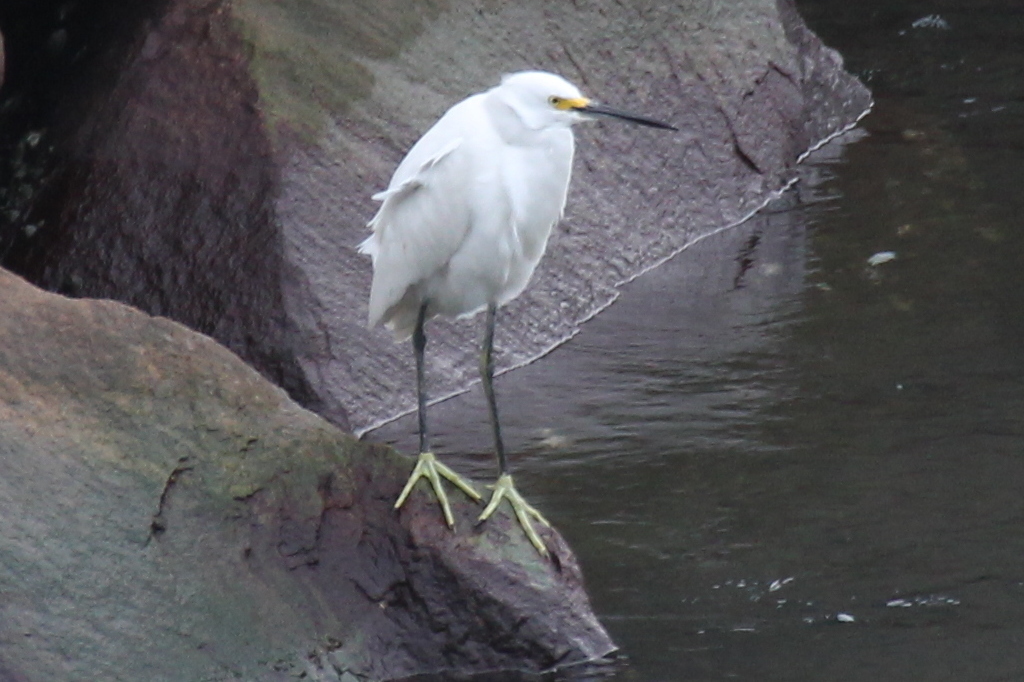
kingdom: Animalia
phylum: Chordata
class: Aves
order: Pelecaniformes
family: Ardeidae
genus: Egretta
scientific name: Egretta thula
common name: Snowy egret
